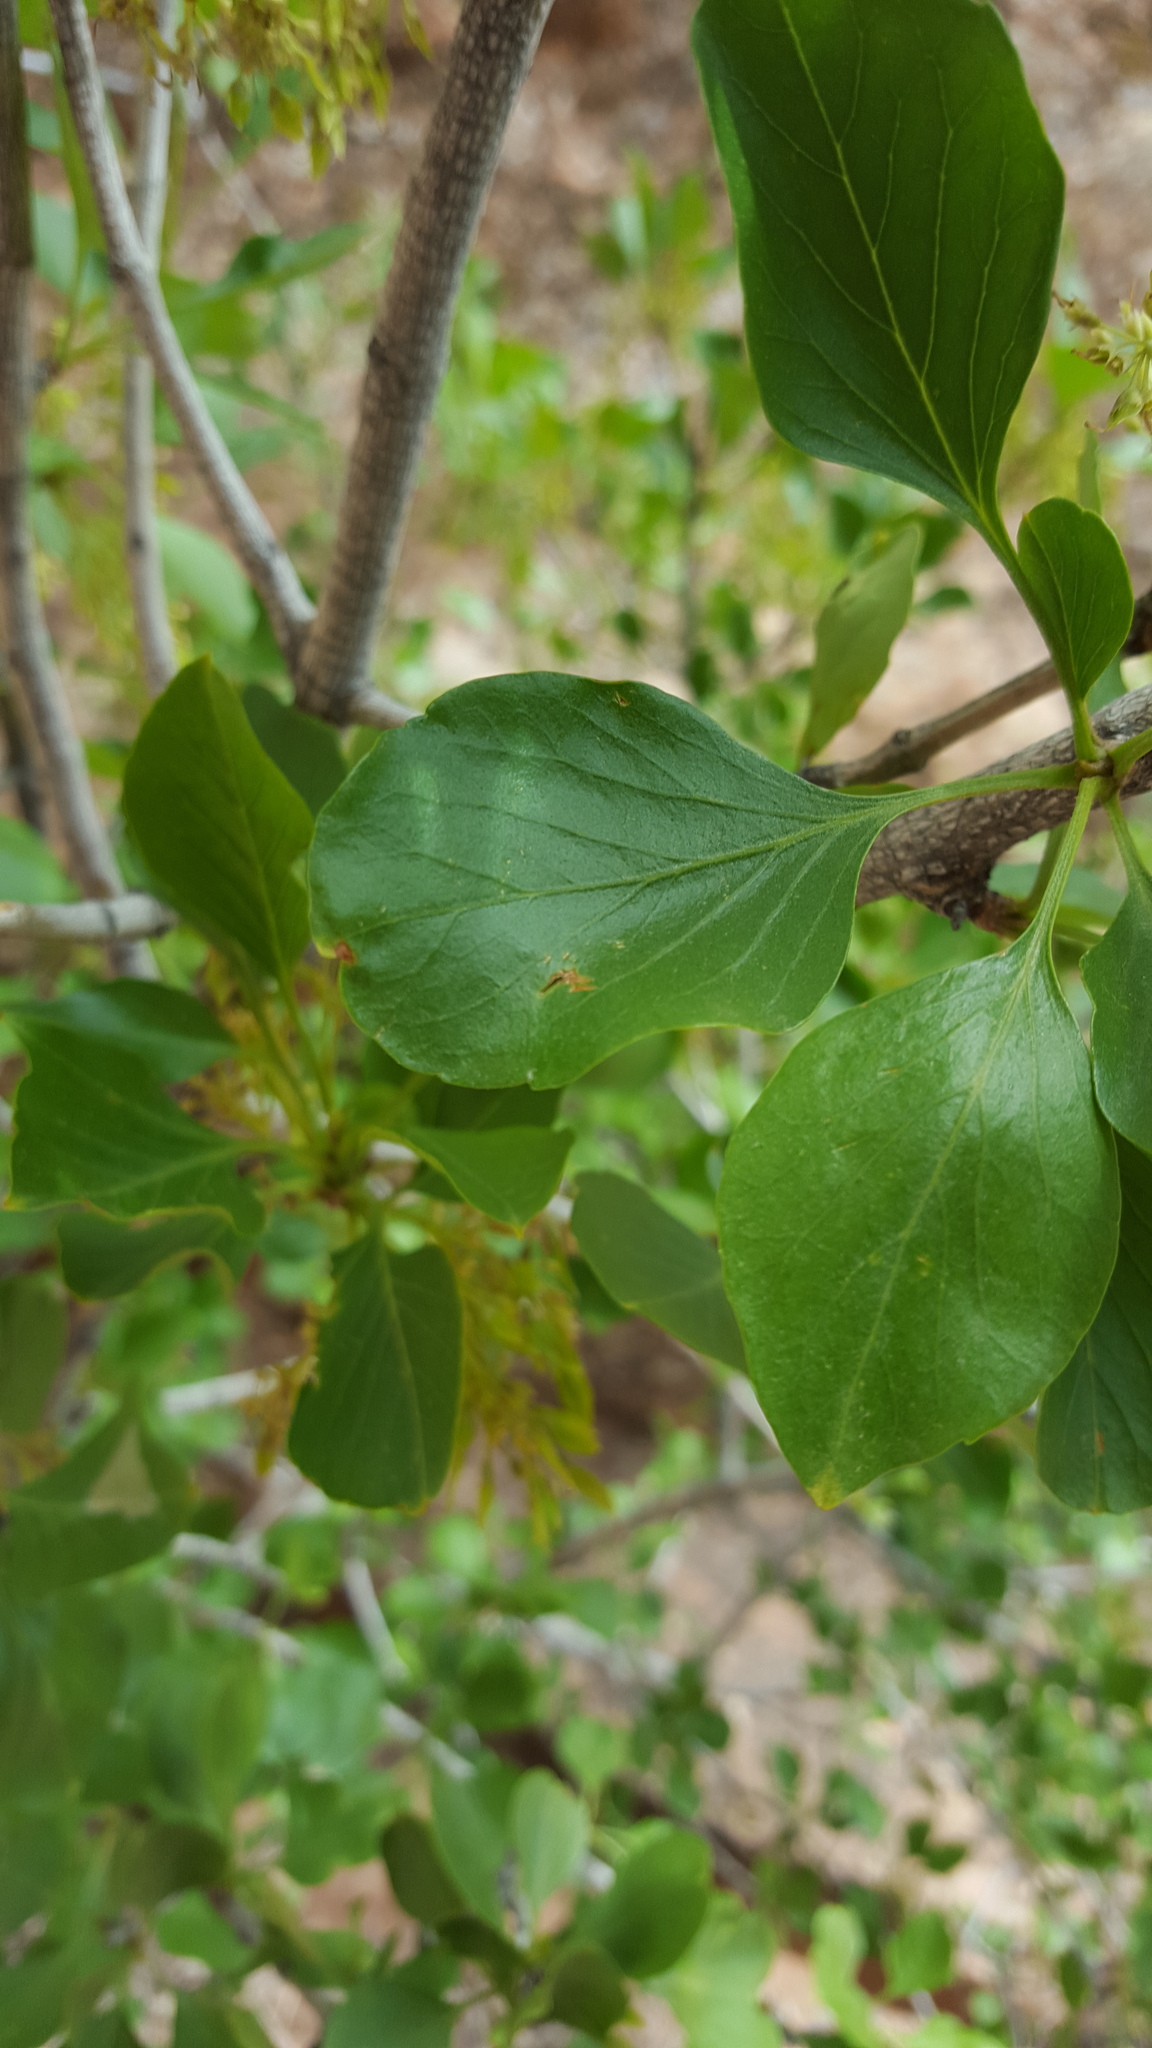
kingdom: Plantae
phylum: Tracheophyta
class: Magnoliopsida
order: Lamiales
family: Oleaceae
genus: Fraxinus
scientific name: Fraxinus anomala
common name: Utah ash
